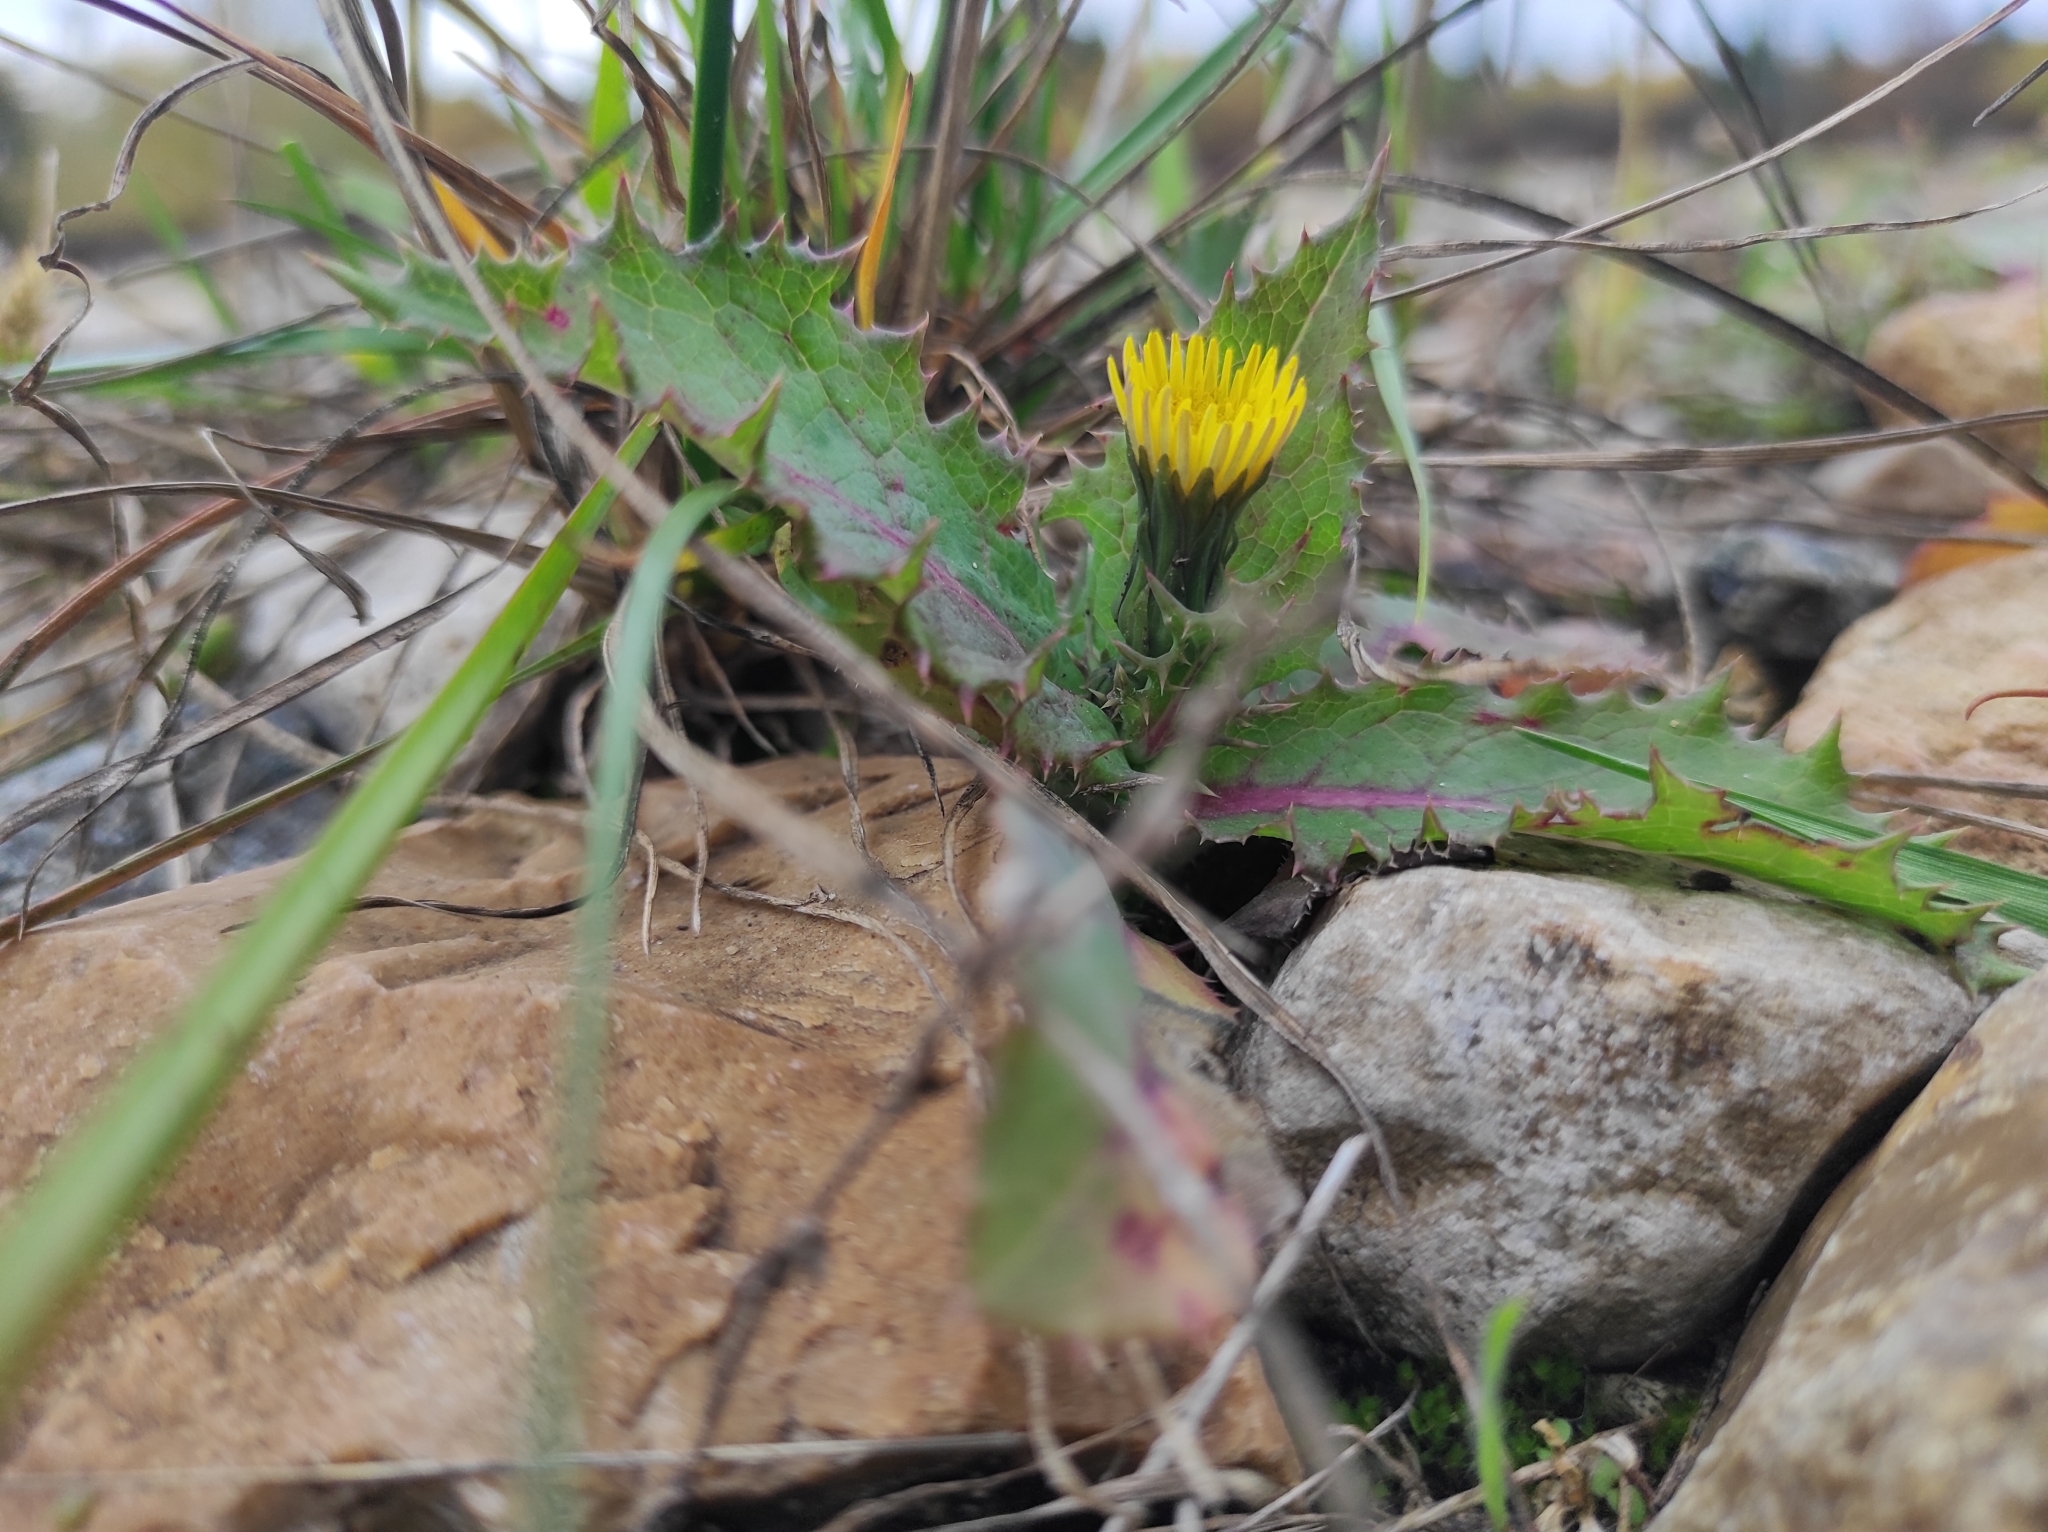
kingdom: Plantae
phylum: Tracheophyta
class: Magnoliopsida
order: Asterales
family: Asteraceae
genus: Sonchus
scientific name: Sonchus oleraceus
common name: Common sowthistle
